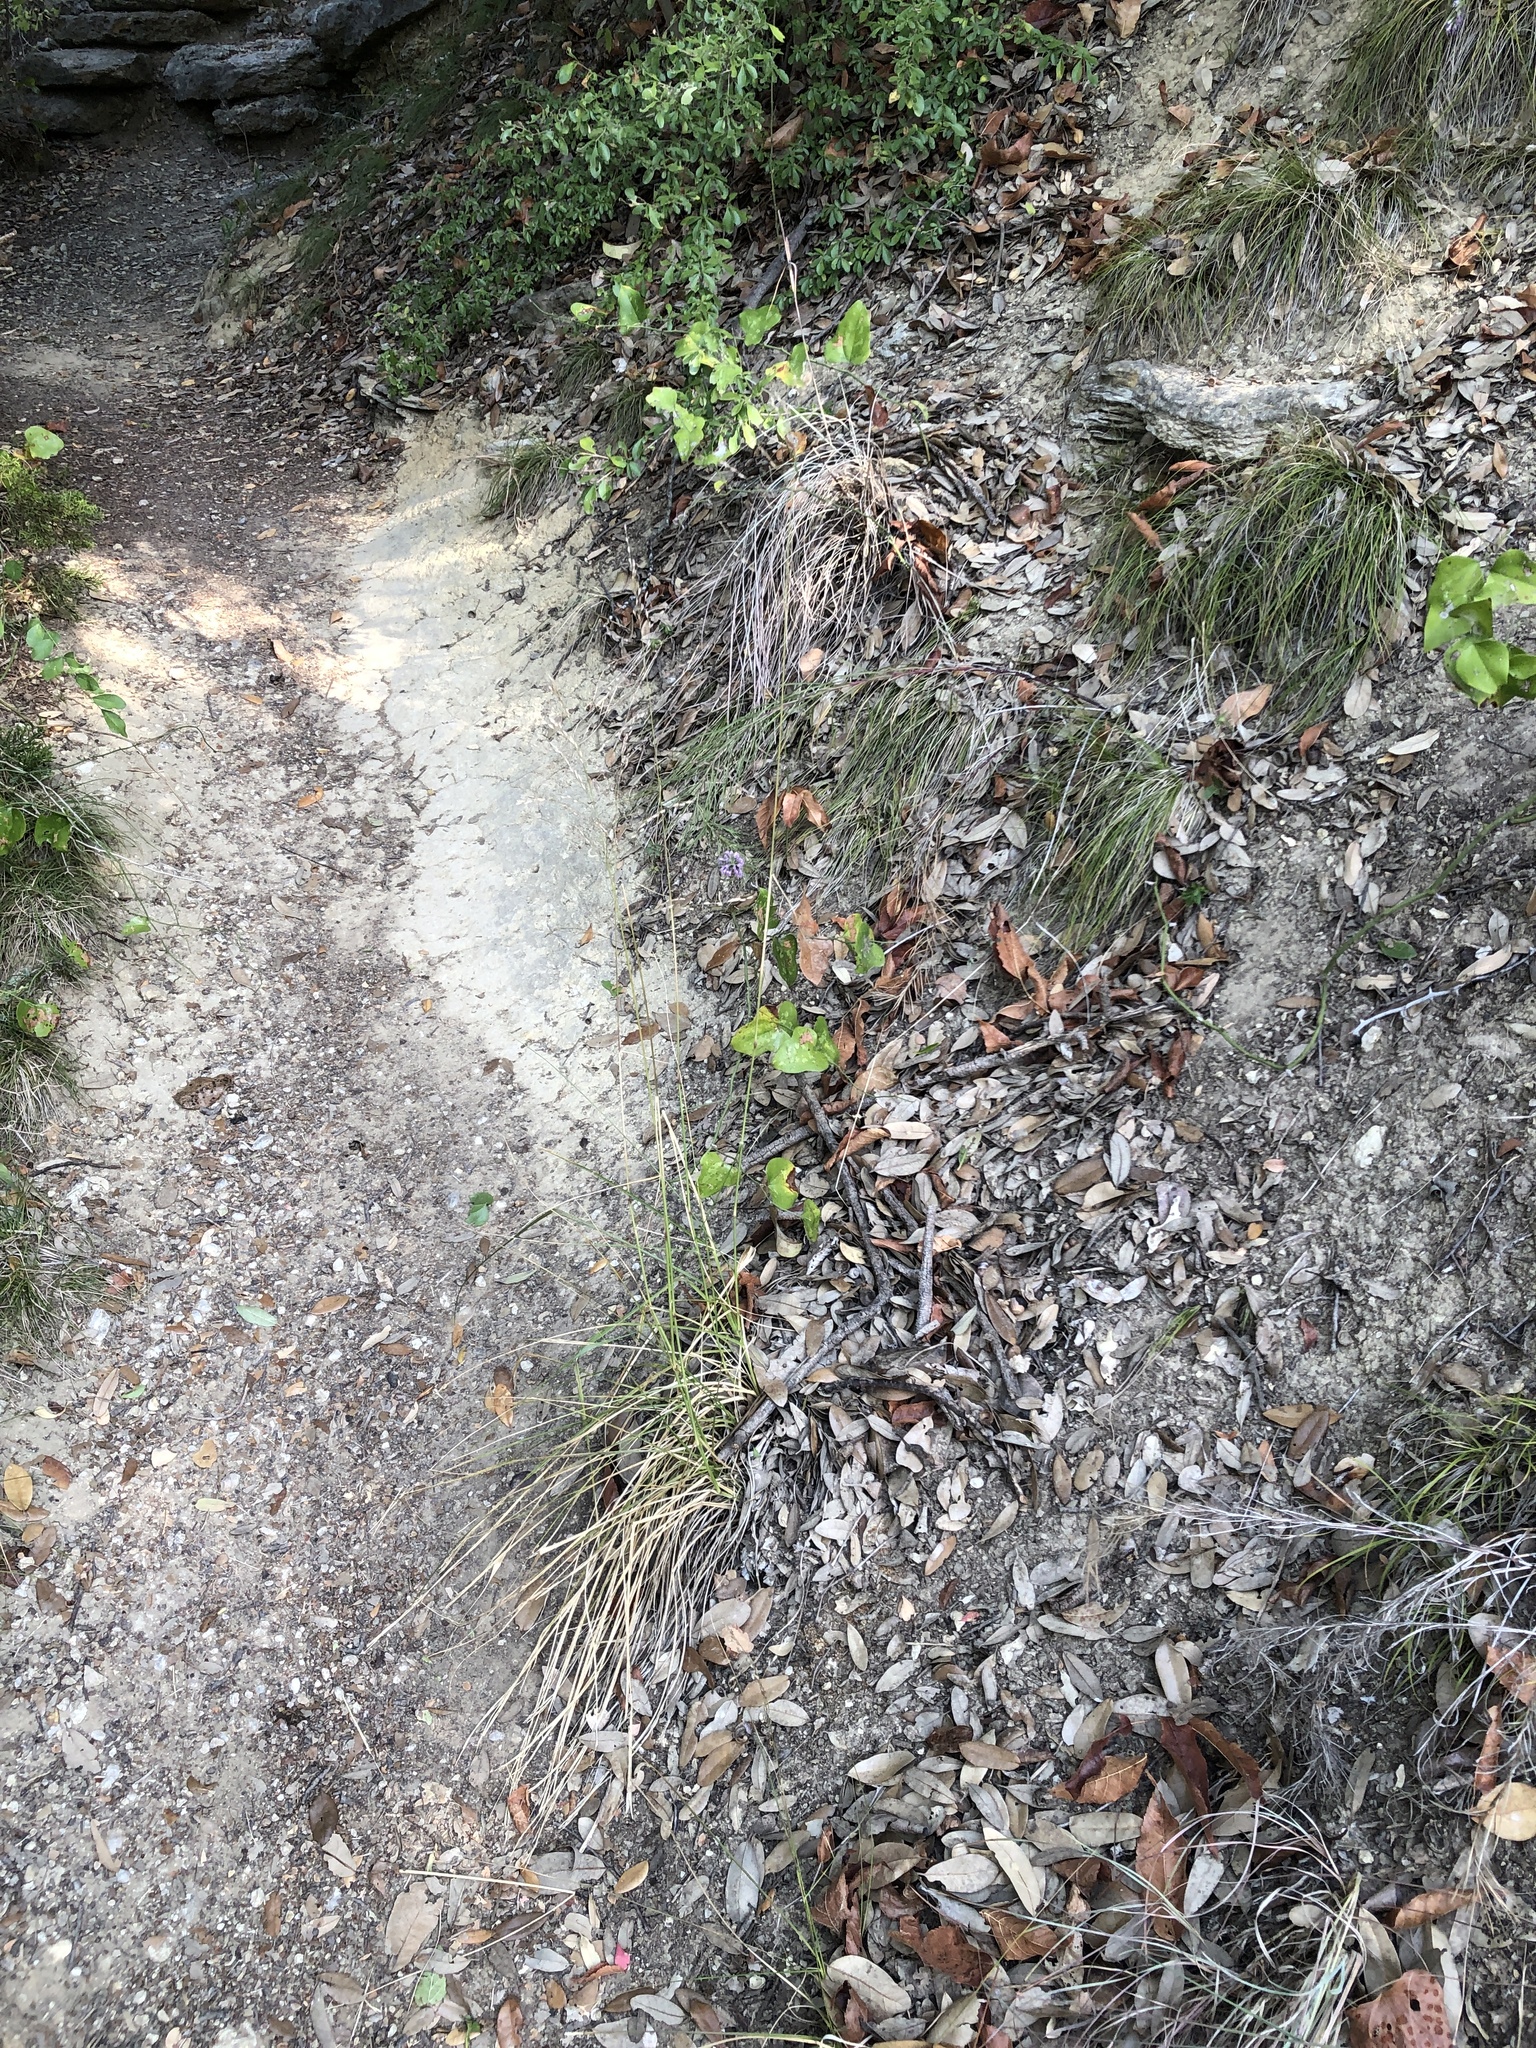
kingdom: Plantae
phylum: Tracheophyta
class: Liliopsida
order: Poales
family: Poaceae
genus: Tridens
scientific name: Tridens flavus
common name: Purpletop
